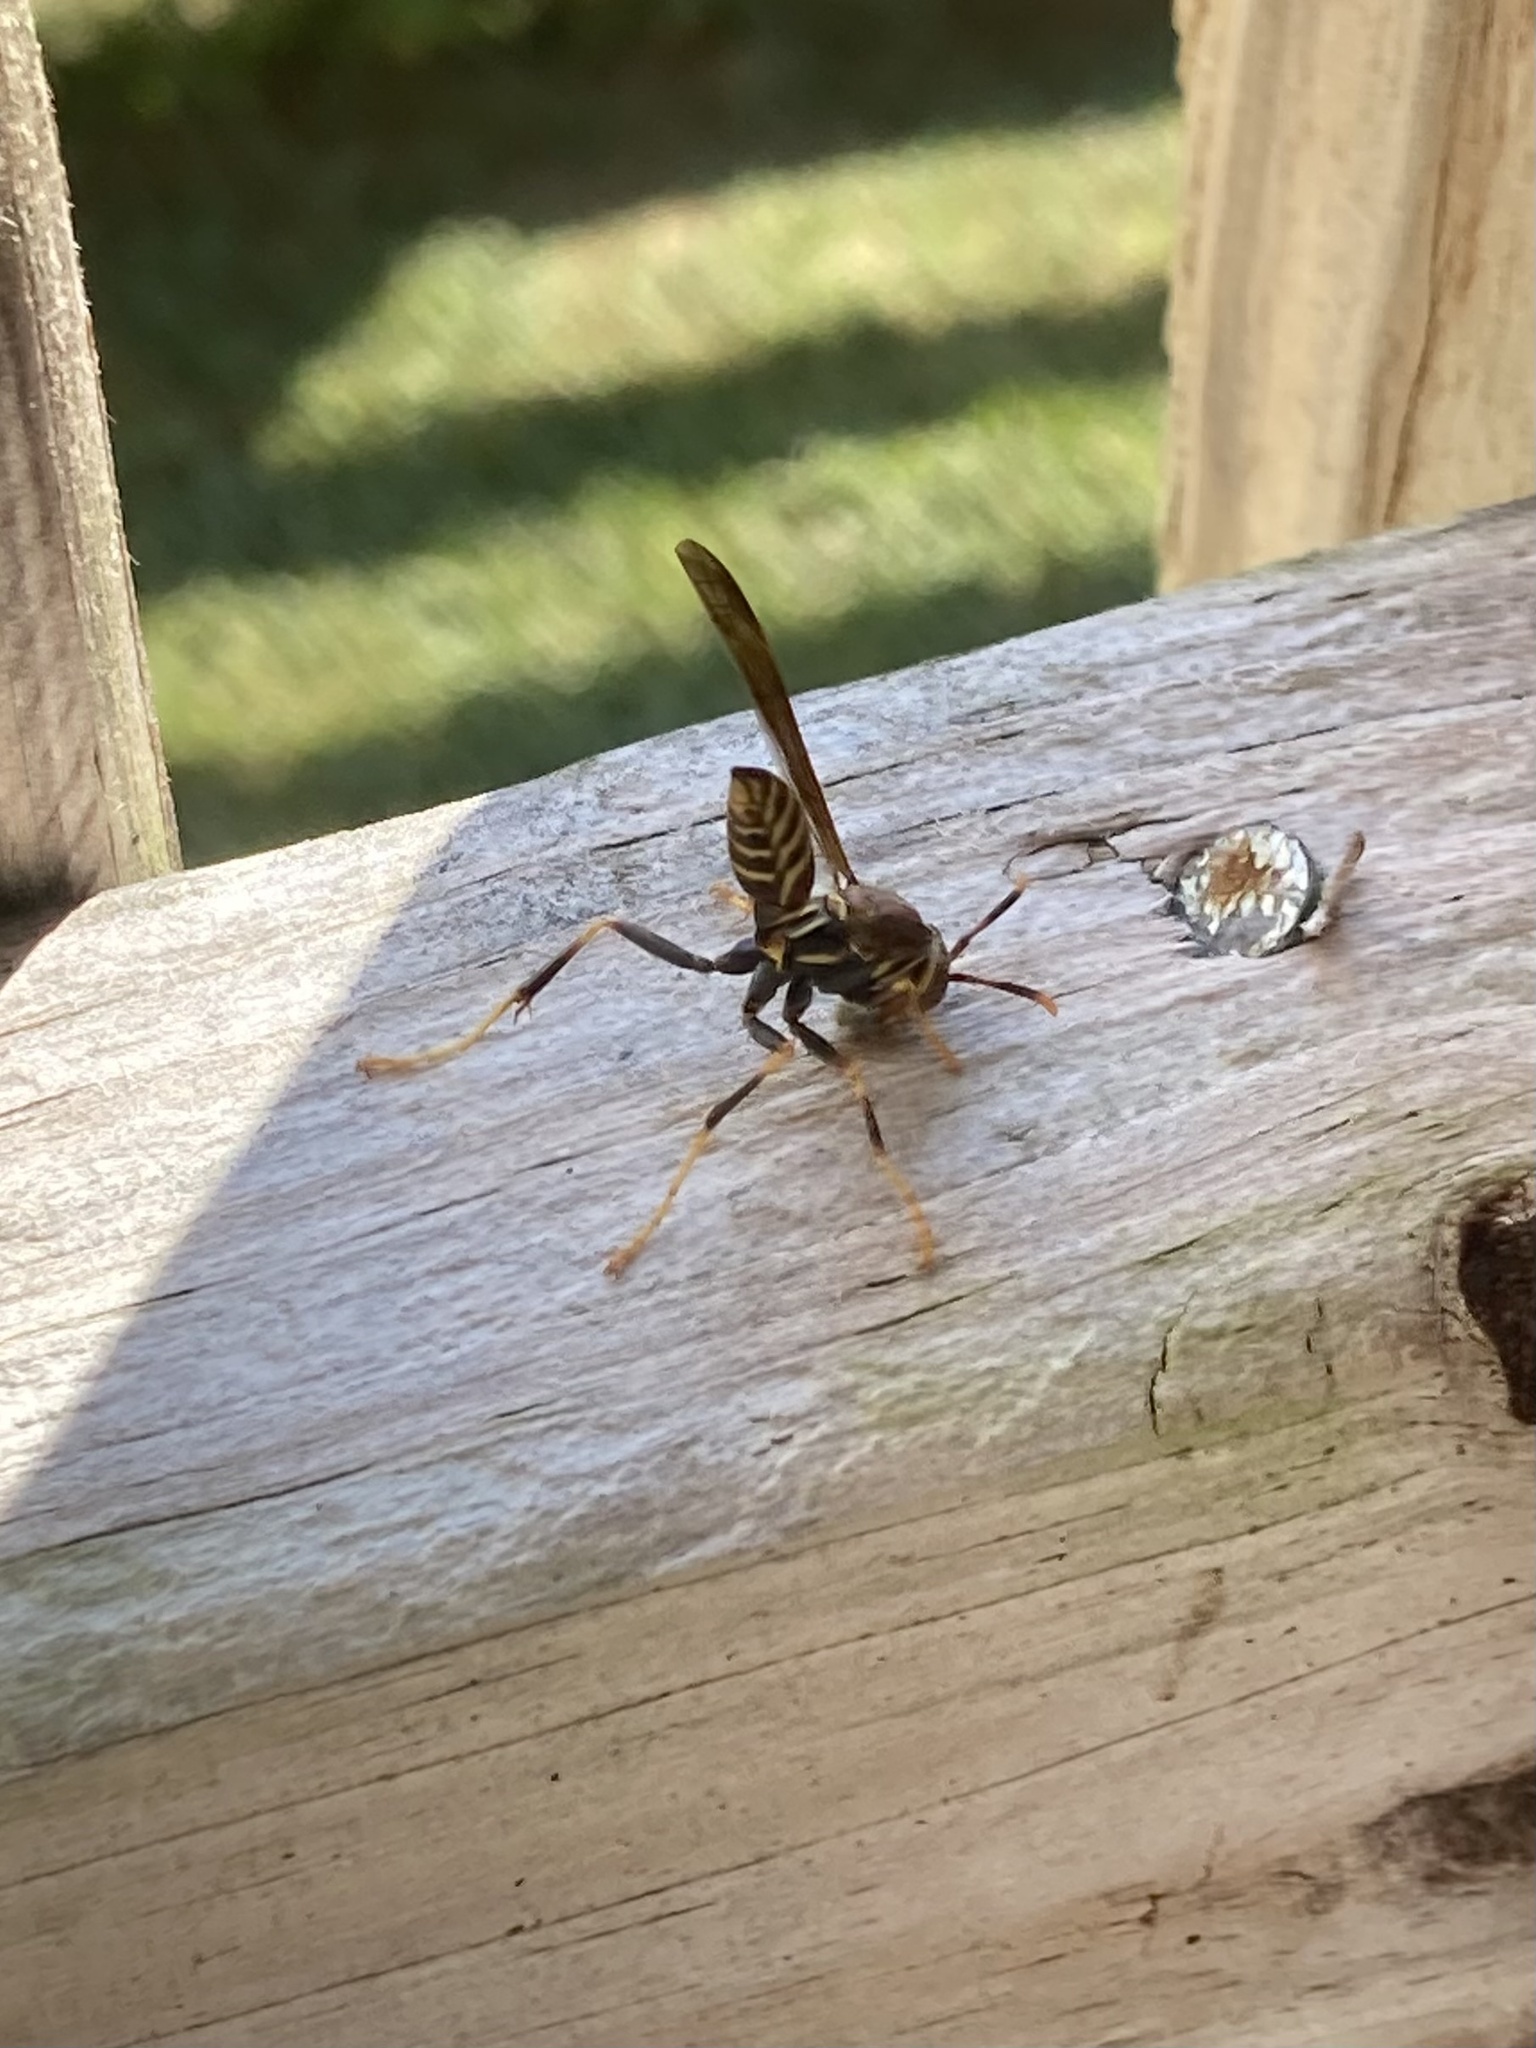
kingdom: Animalia
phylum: Arthropoda
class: Insecta
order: Hymenoptera
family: Eumenidae
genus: Polistes
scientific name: Polistes exclamans
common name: Paper wasp
